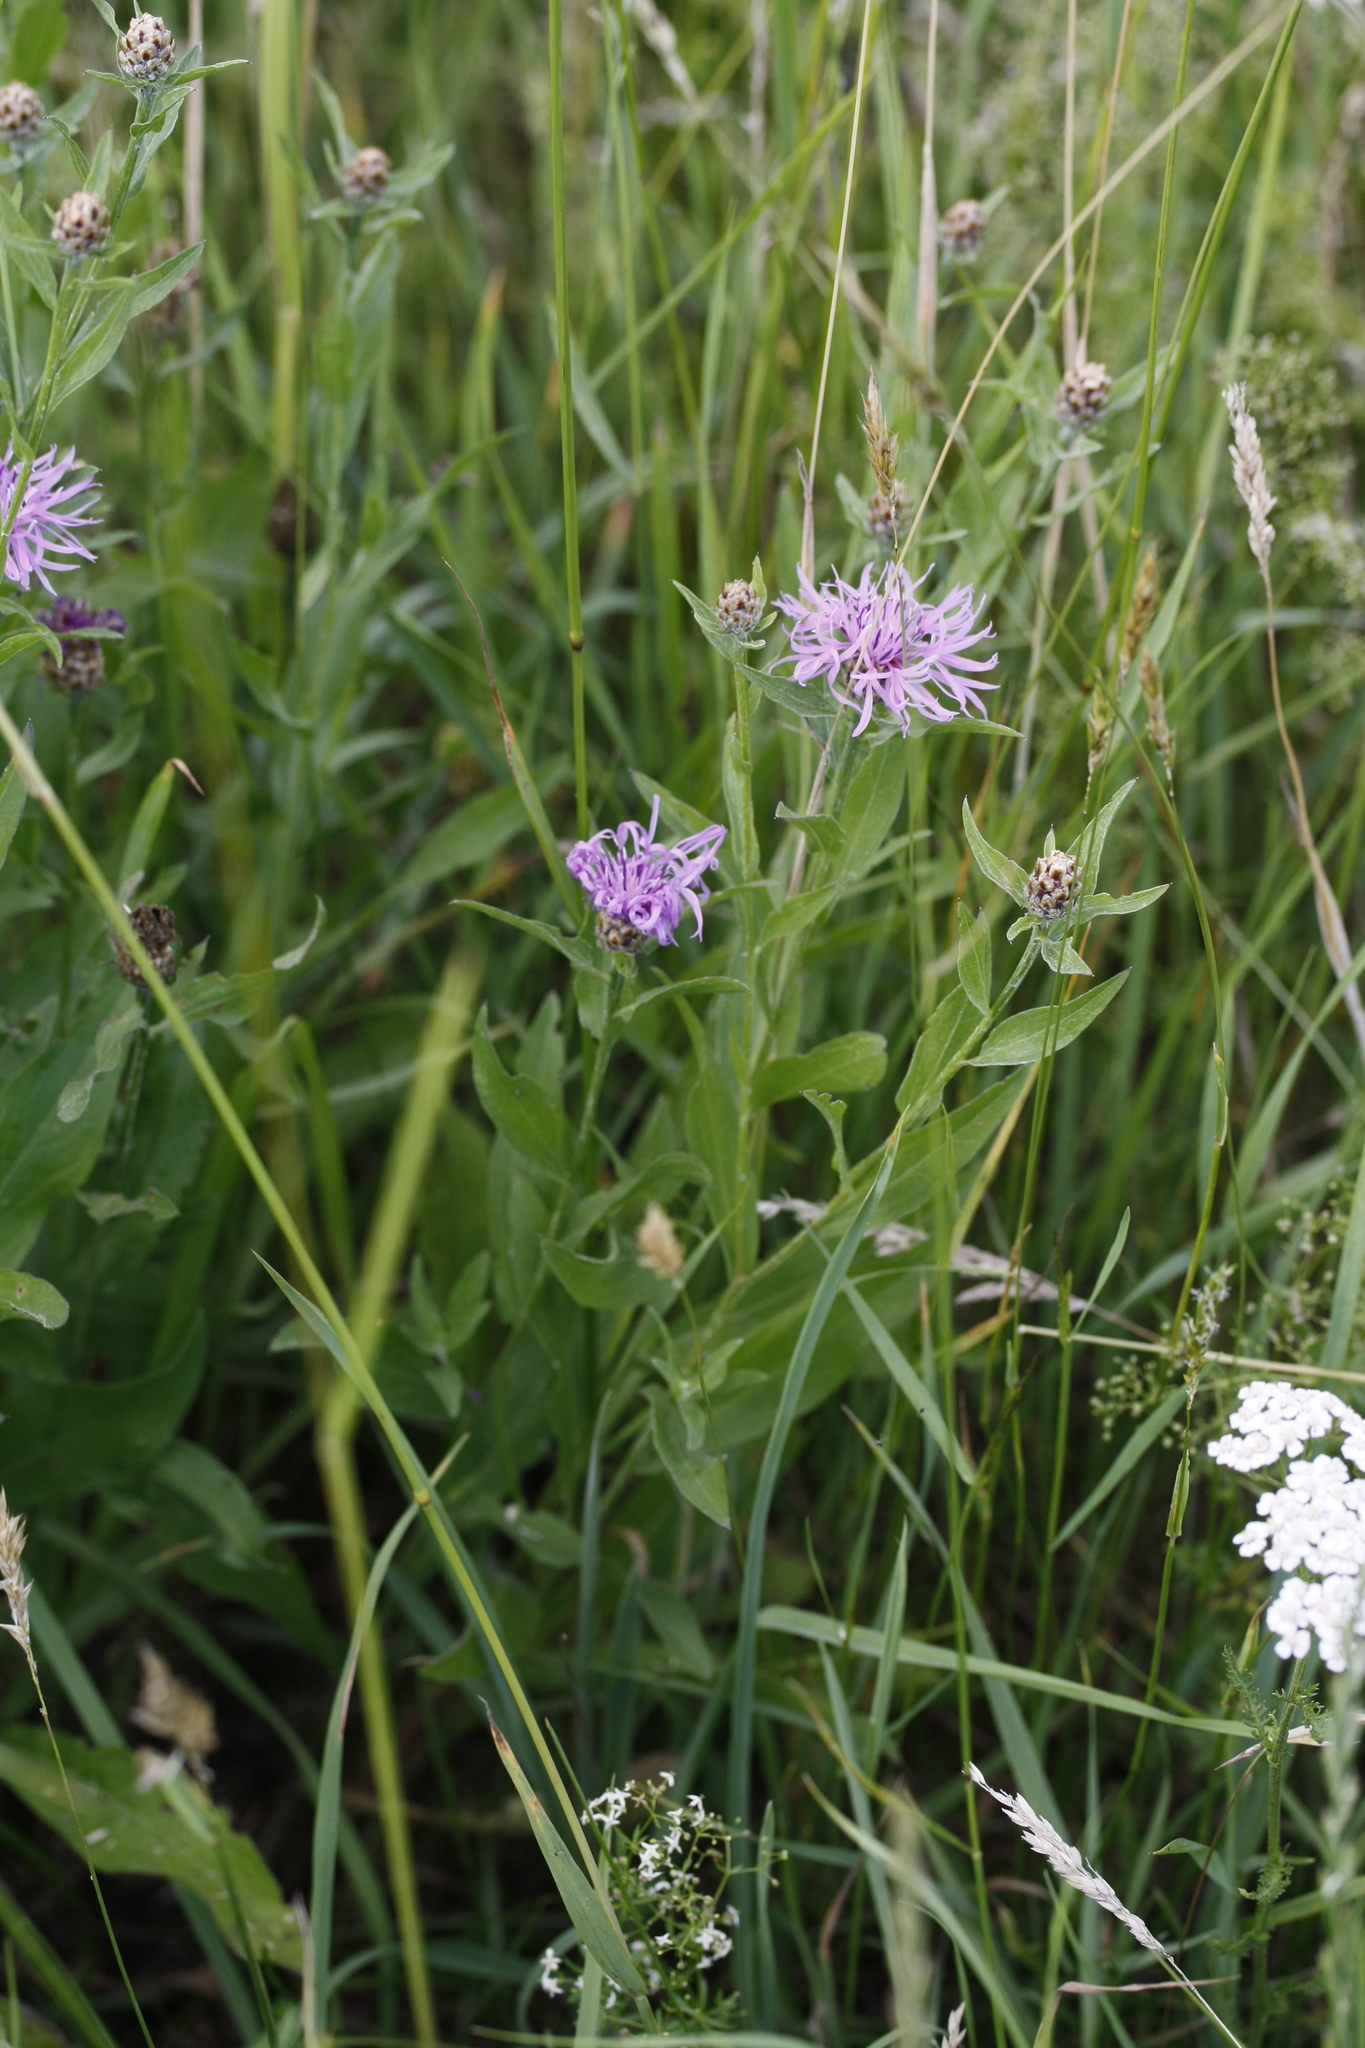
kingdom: Plantae
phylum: Tracheophyta
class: Magnoliopsida
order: Asterales
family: Asteraceae
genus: Centaurea
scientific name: Centaurea jacea
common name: Brown knapweed
